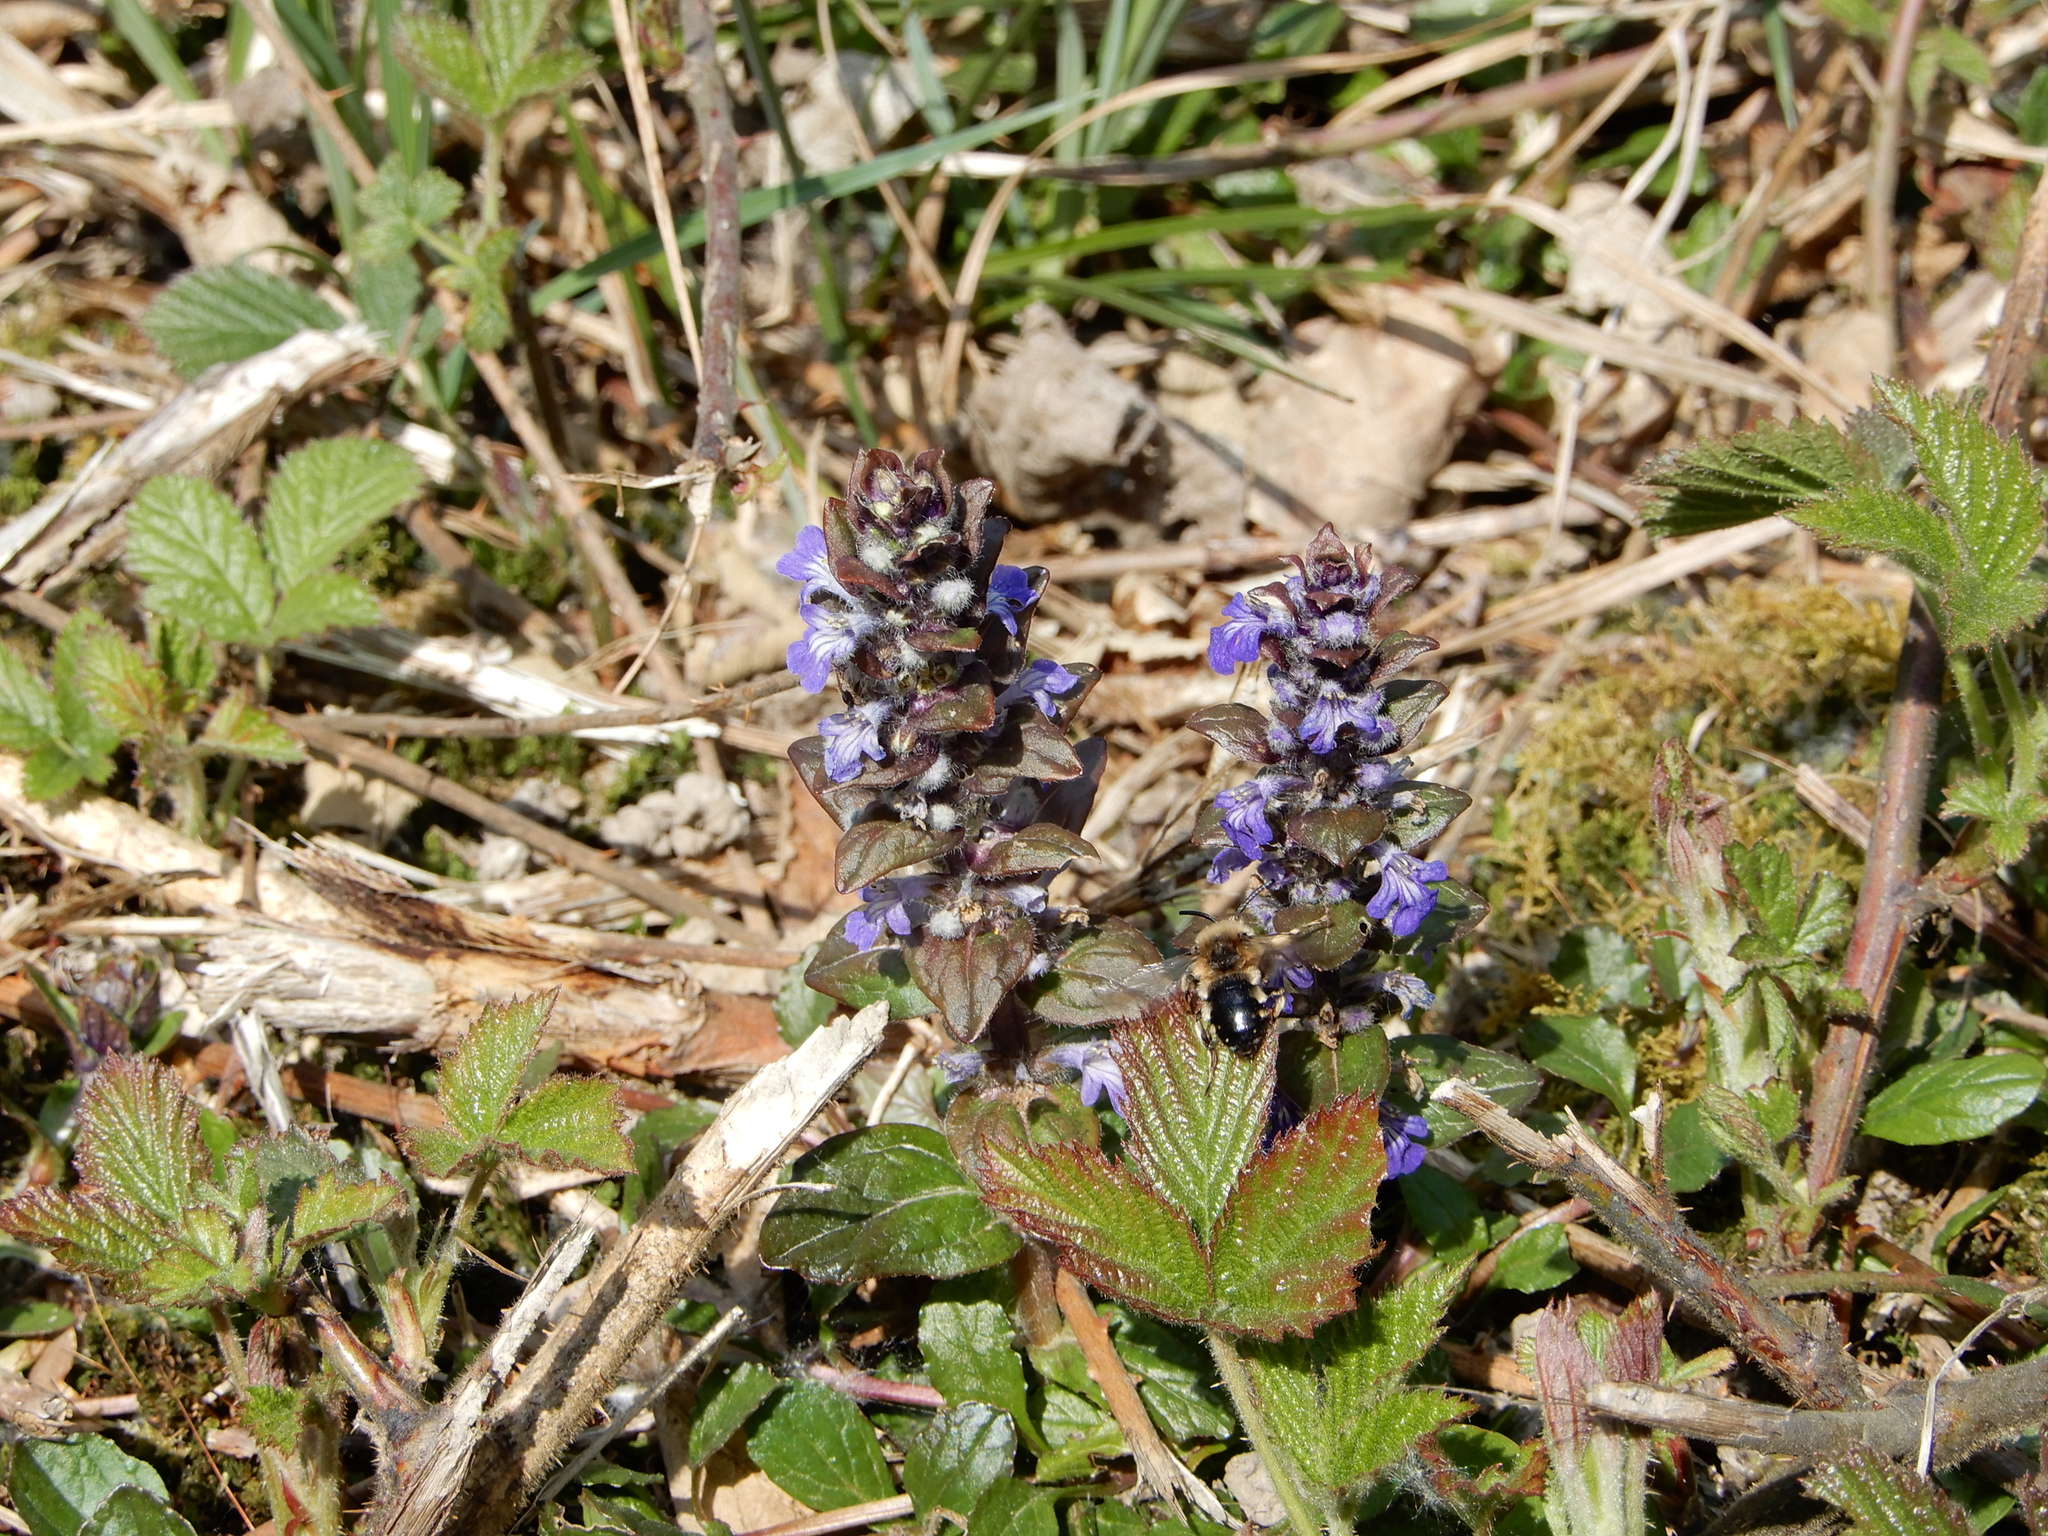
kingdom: Plantae
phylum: Tracheophyta
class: Magnoliopsida
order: Lamiales
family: Lamiaceae
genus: Ajuga
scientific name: Ajuga reptans
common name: Bugle
